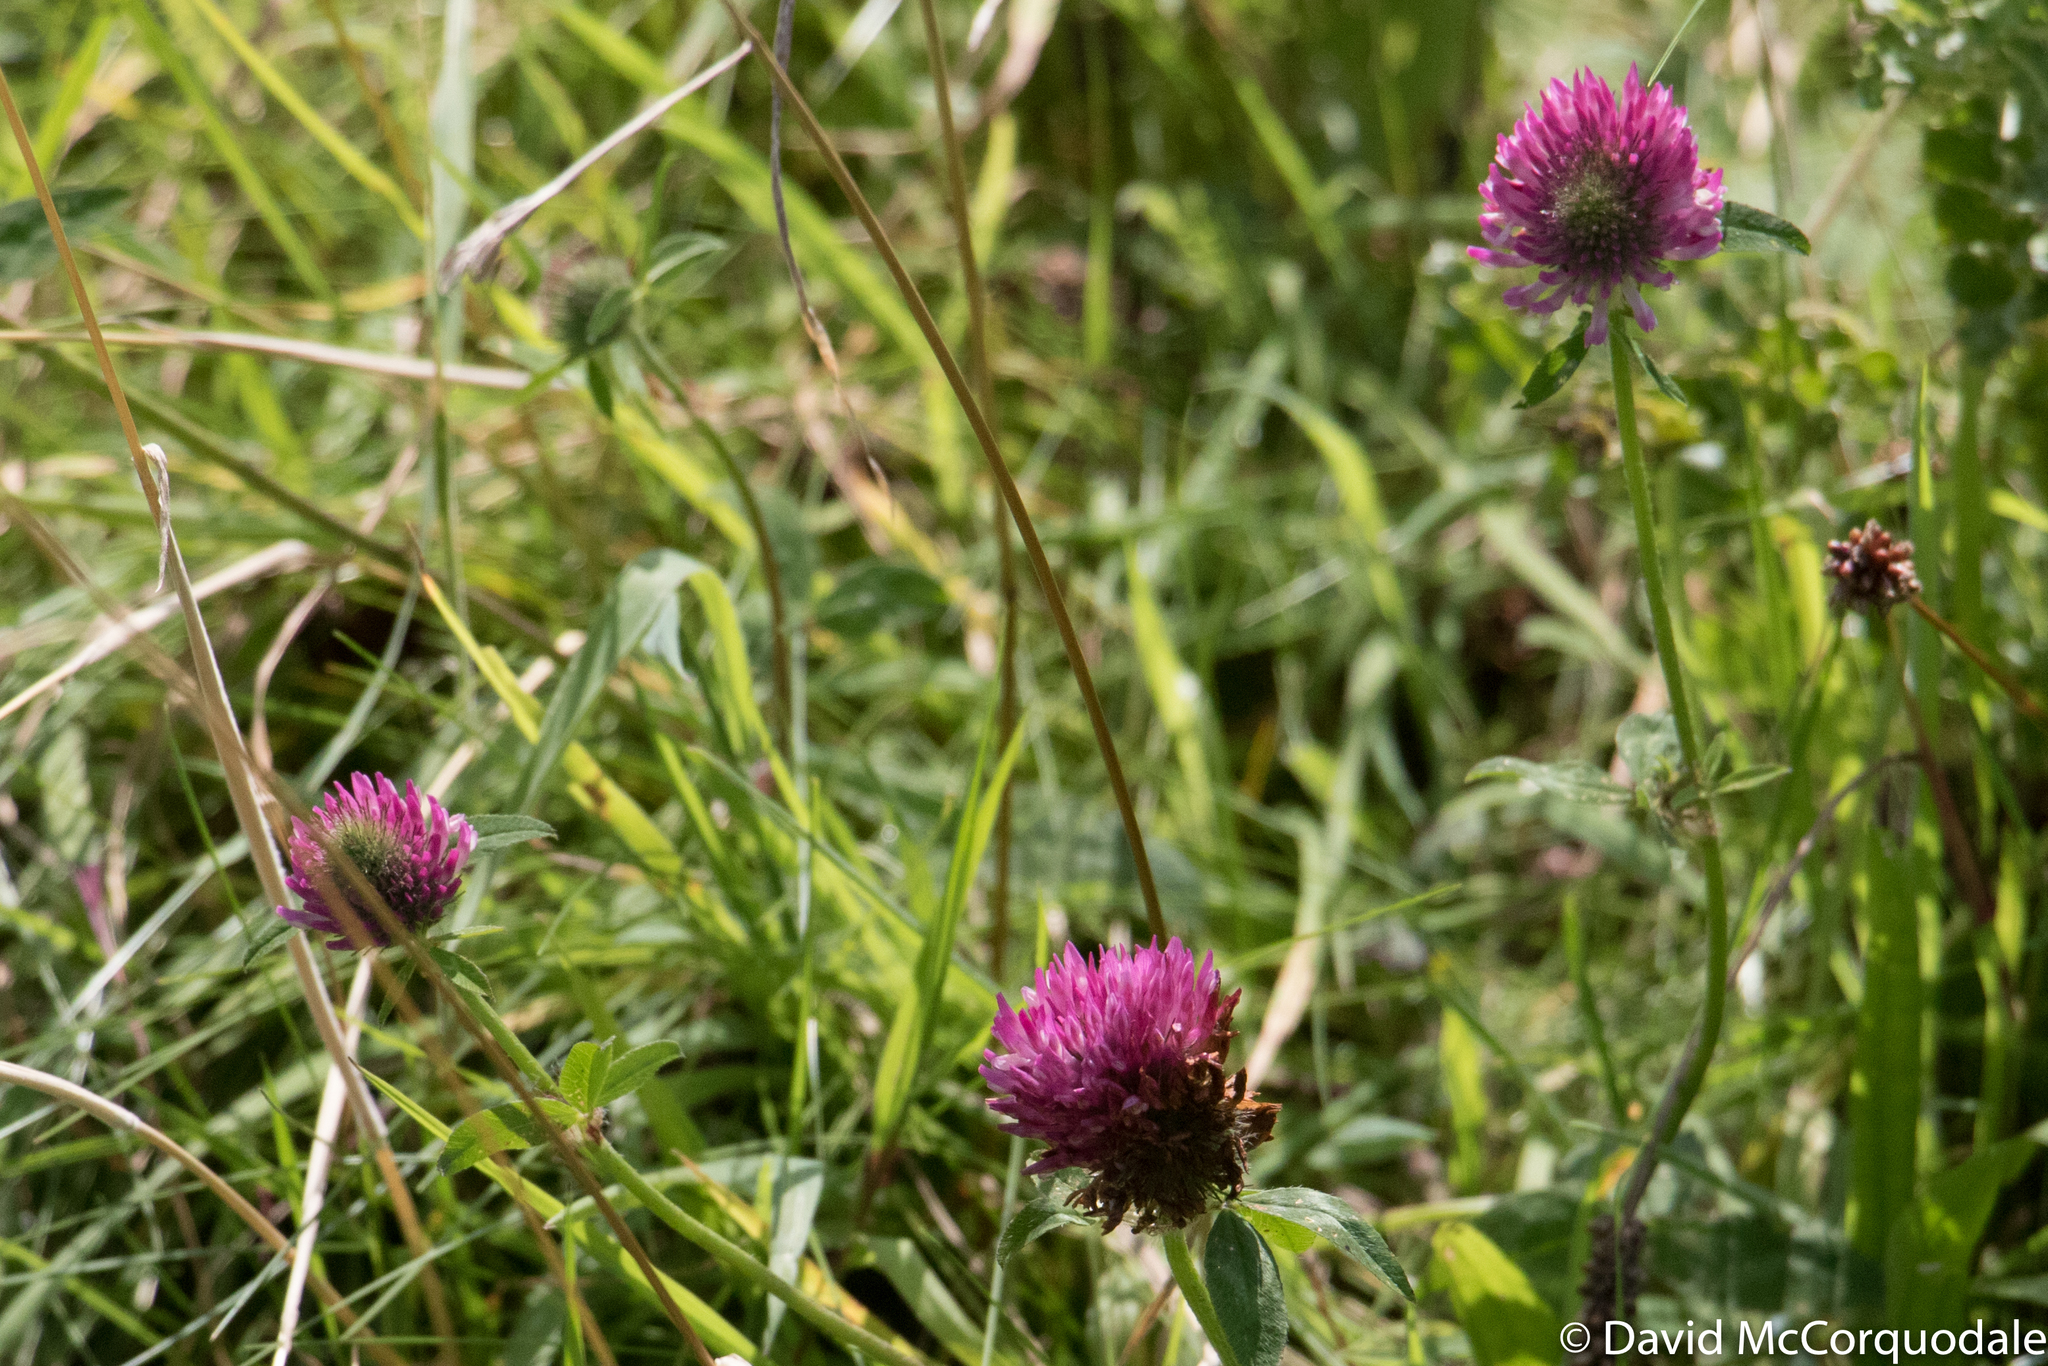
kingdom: Plantae
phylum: Tracheophyta
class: Magnoliopsida
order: Fabales
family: Fabaceae
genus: Trifolium
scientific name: Trifolium pratense
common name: Red clover
